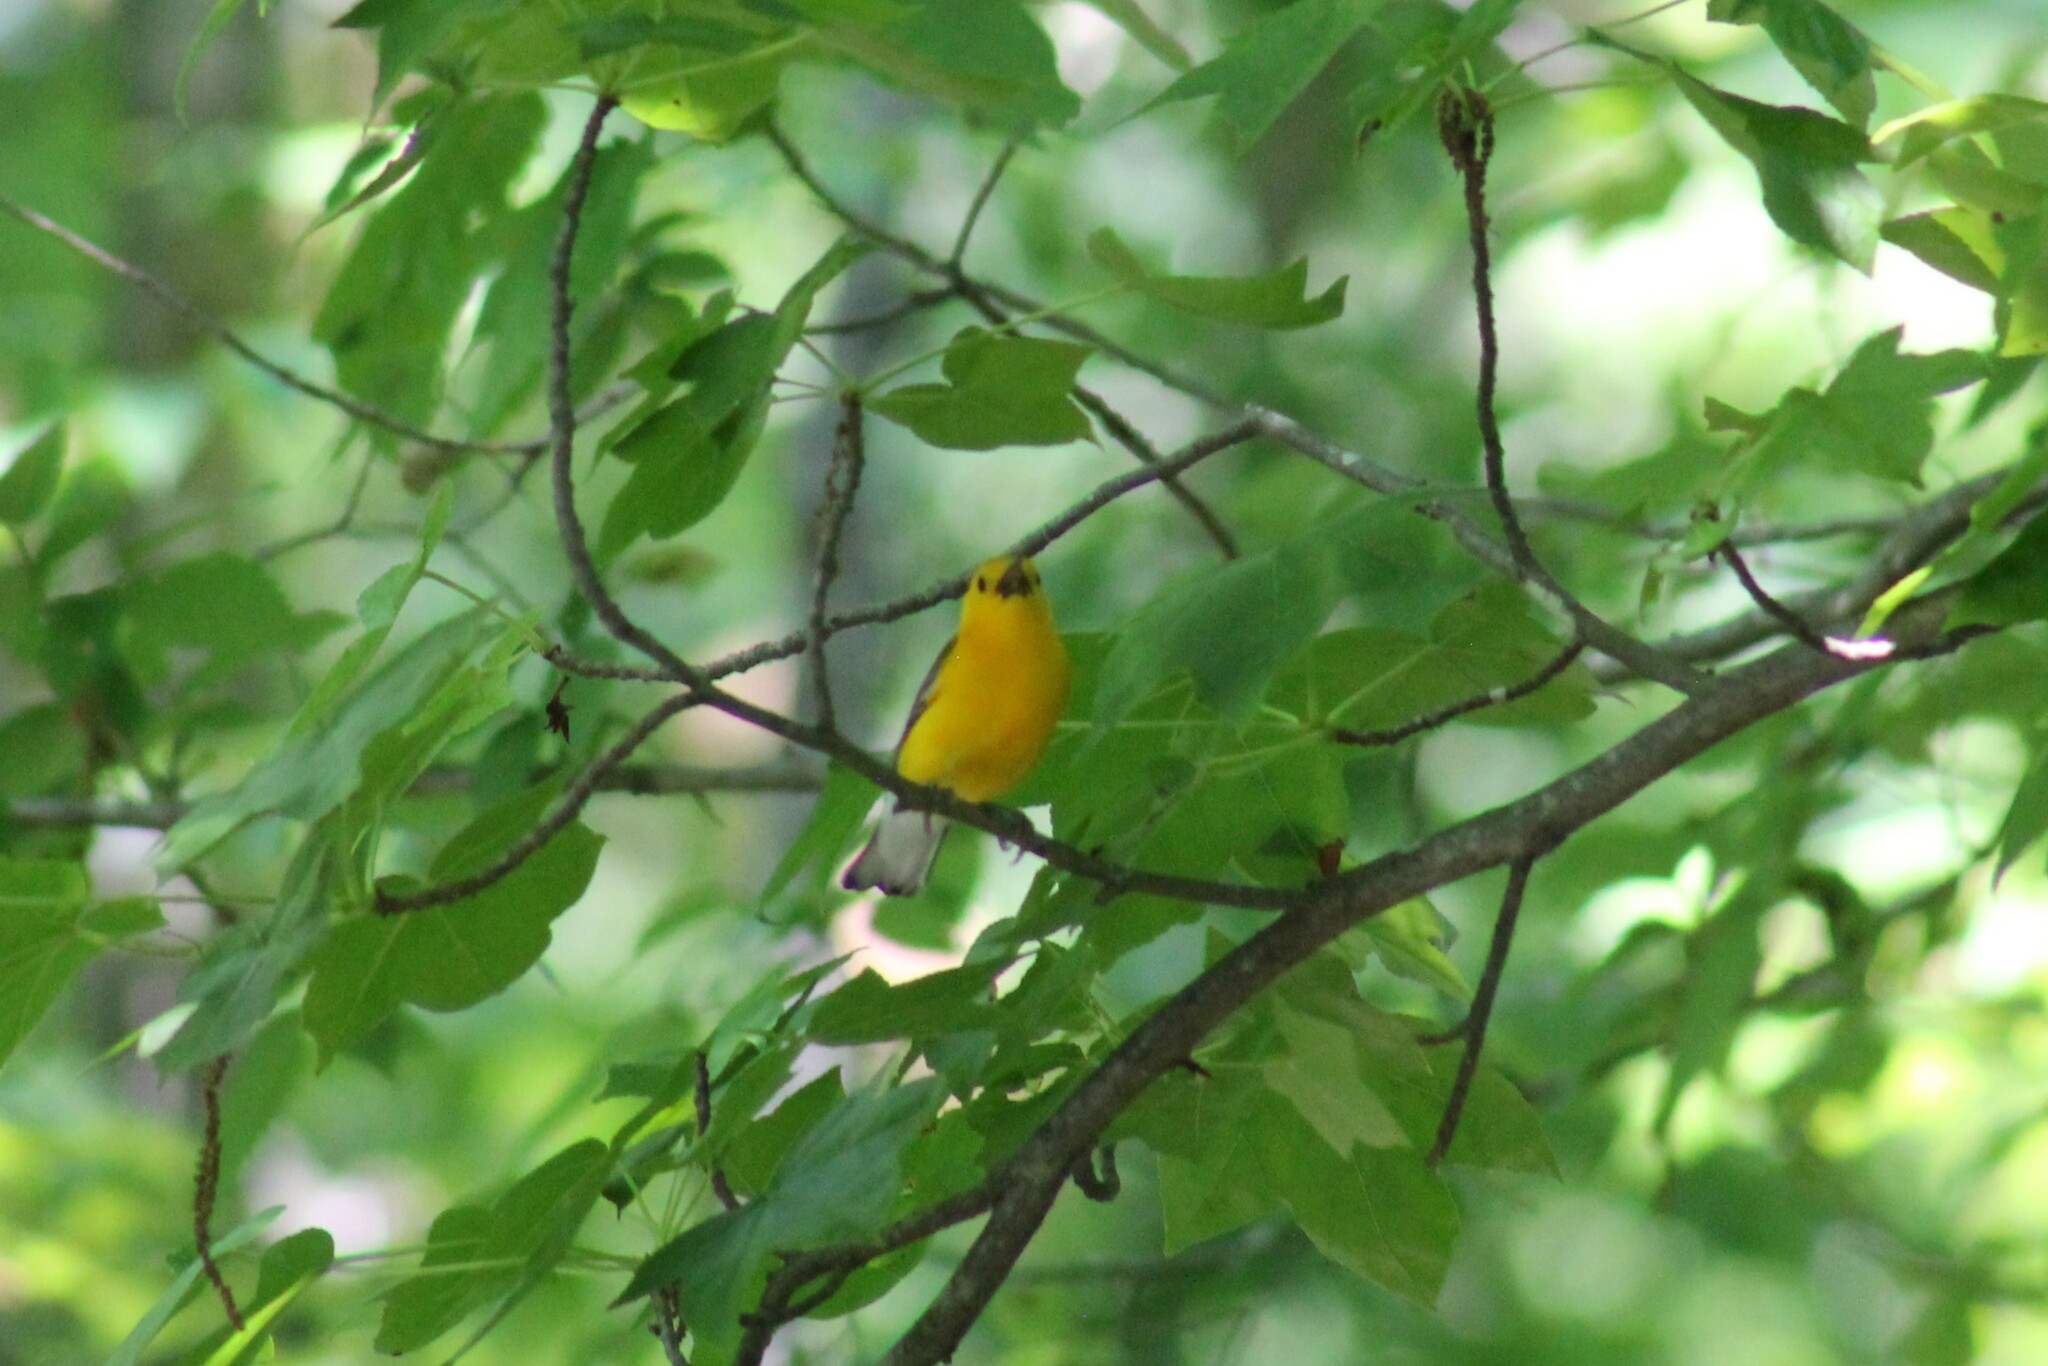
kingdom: Animalia
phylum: Chordata
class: Aves
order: Passeriformes
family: Parulidae
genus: Protonotaria
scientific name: Protonotaria citrea
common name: Prothonotary warbler
